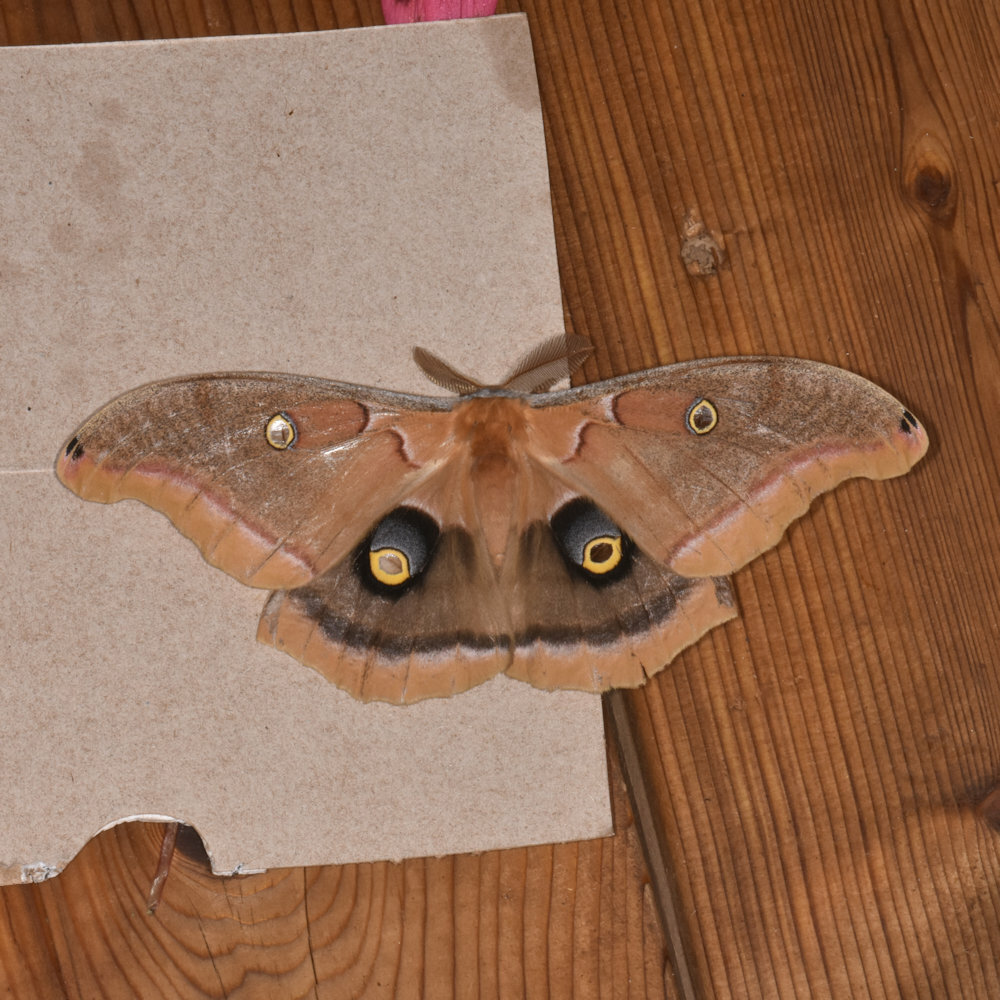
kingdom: Animalia
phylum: Arthropoda
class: Insecta
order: Lepidoptera
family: Saturniidae
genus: Antheraea
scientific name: Antheraea polyphemus
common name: Polyphemus moth
